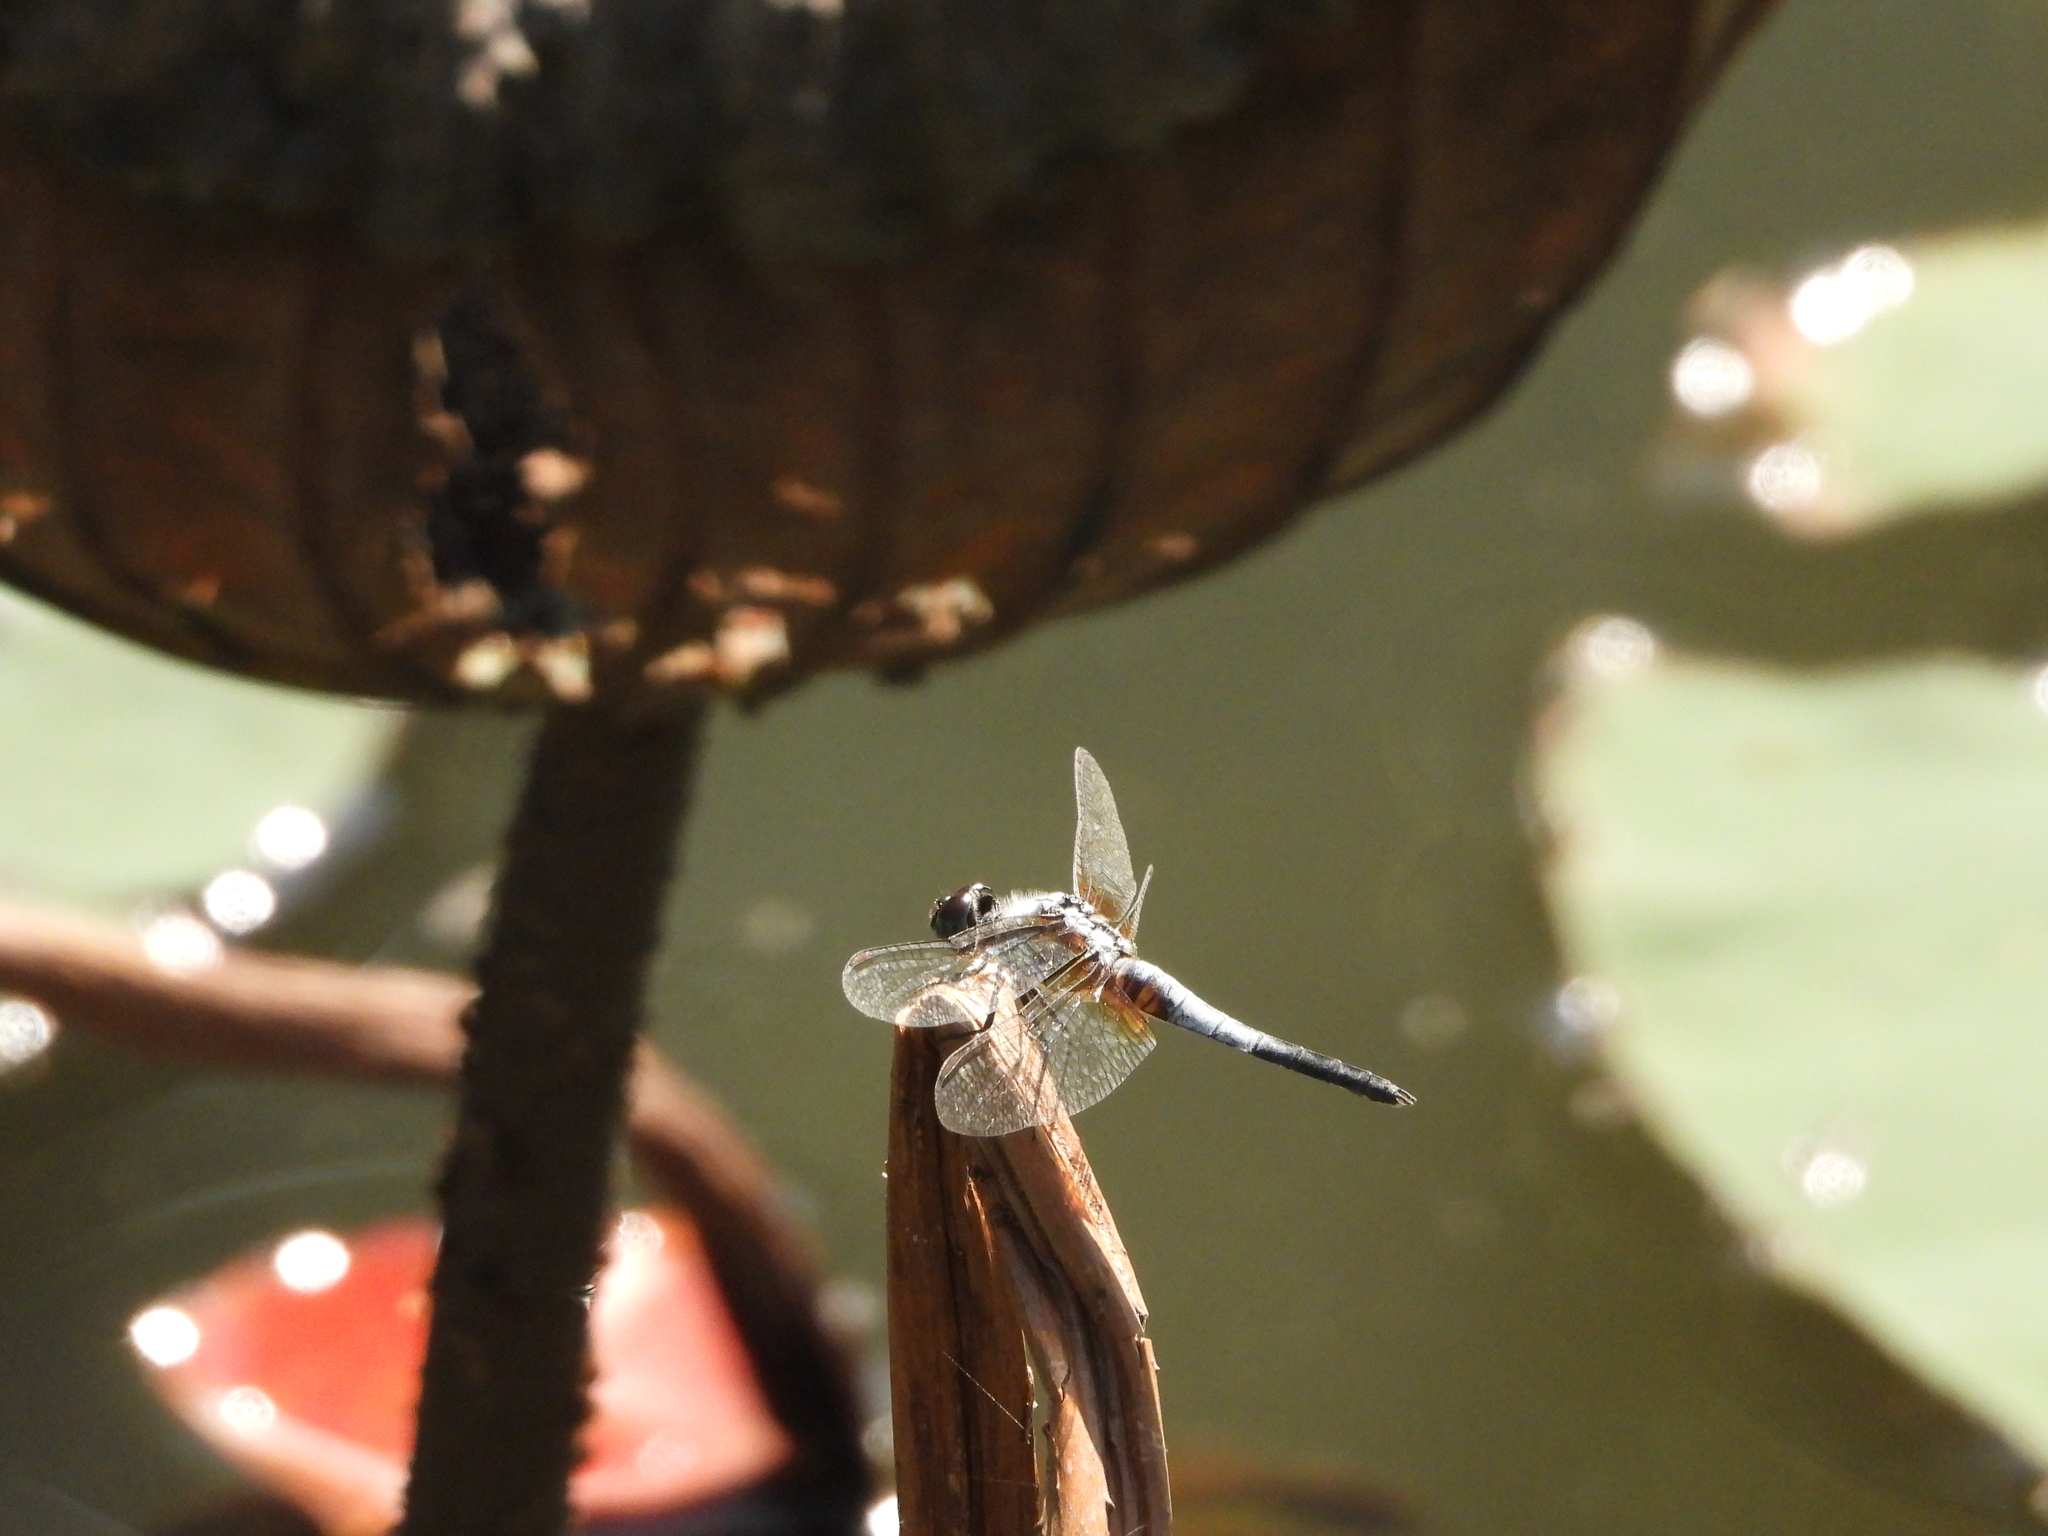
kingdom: Animalia
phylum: Arthropoda
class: Insecta
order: Odonata
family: Libellulidae
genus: Brachydiplax
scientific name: Brachydiplax chalybea
